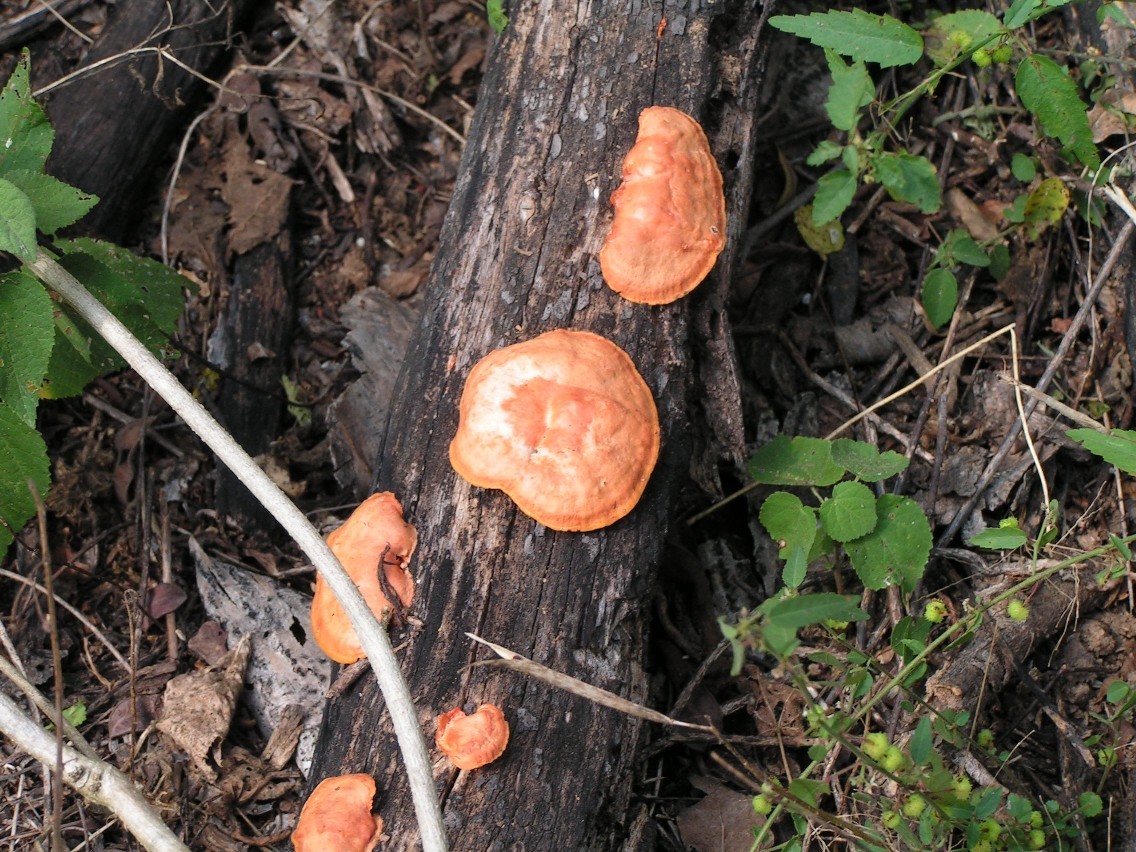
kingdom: Fungi
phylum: Basidiomycota
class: Agaricomycetes
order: Polyporales
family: Polyporaceae
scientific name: Polyporaceae
